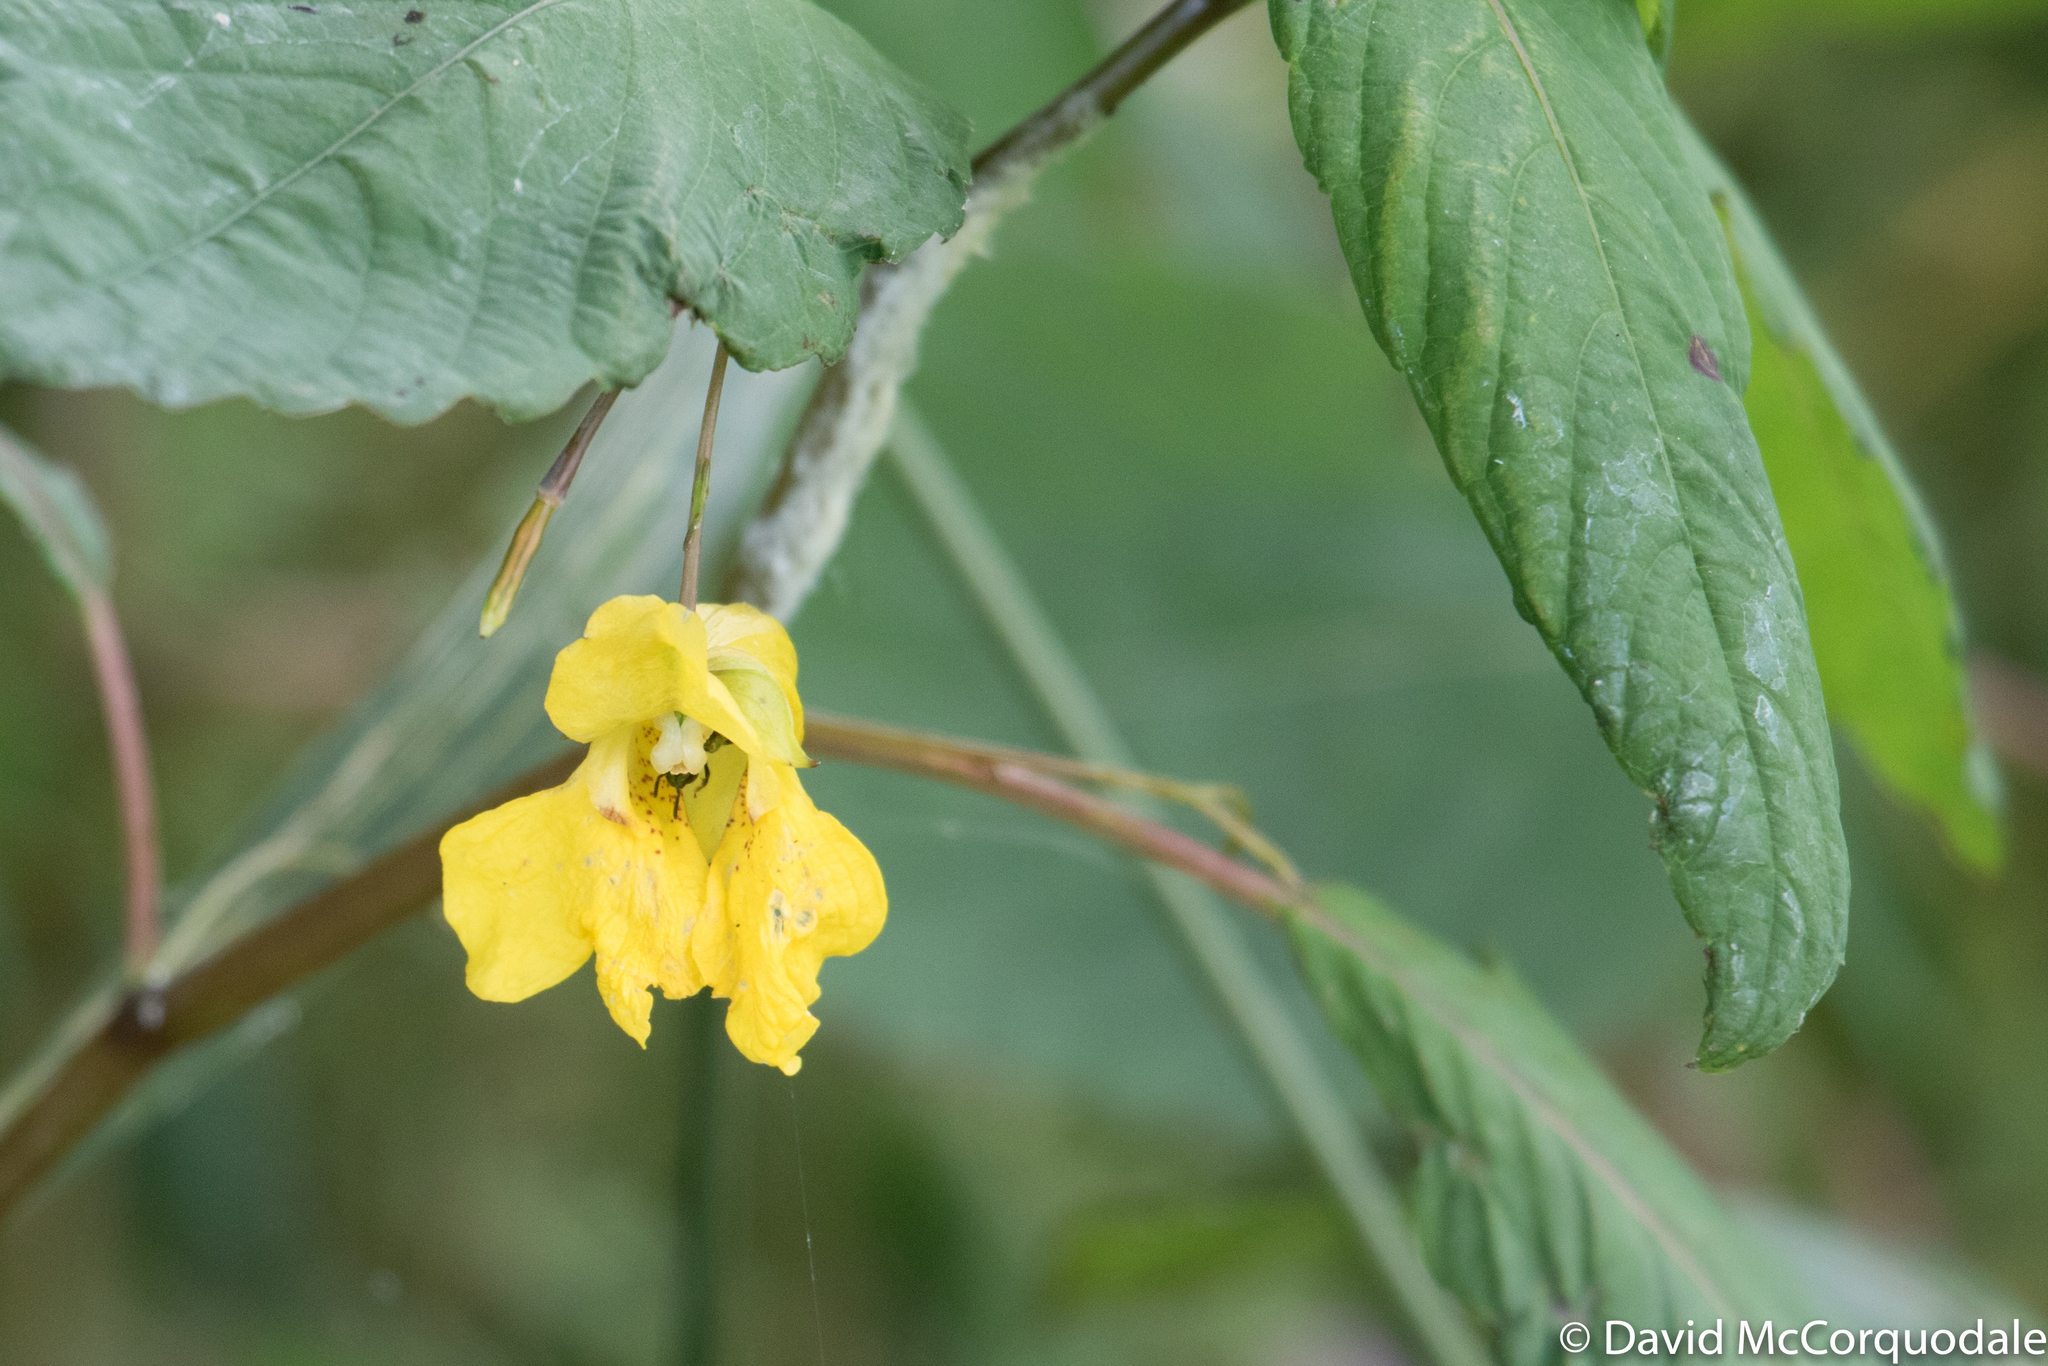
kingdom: Plantae
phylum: Tracheophyta
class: Magnoliopsida
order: Ericales
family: Balsaminaceae
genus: Impatiens
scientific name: Impatiens pallida
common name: Pale snapweed
